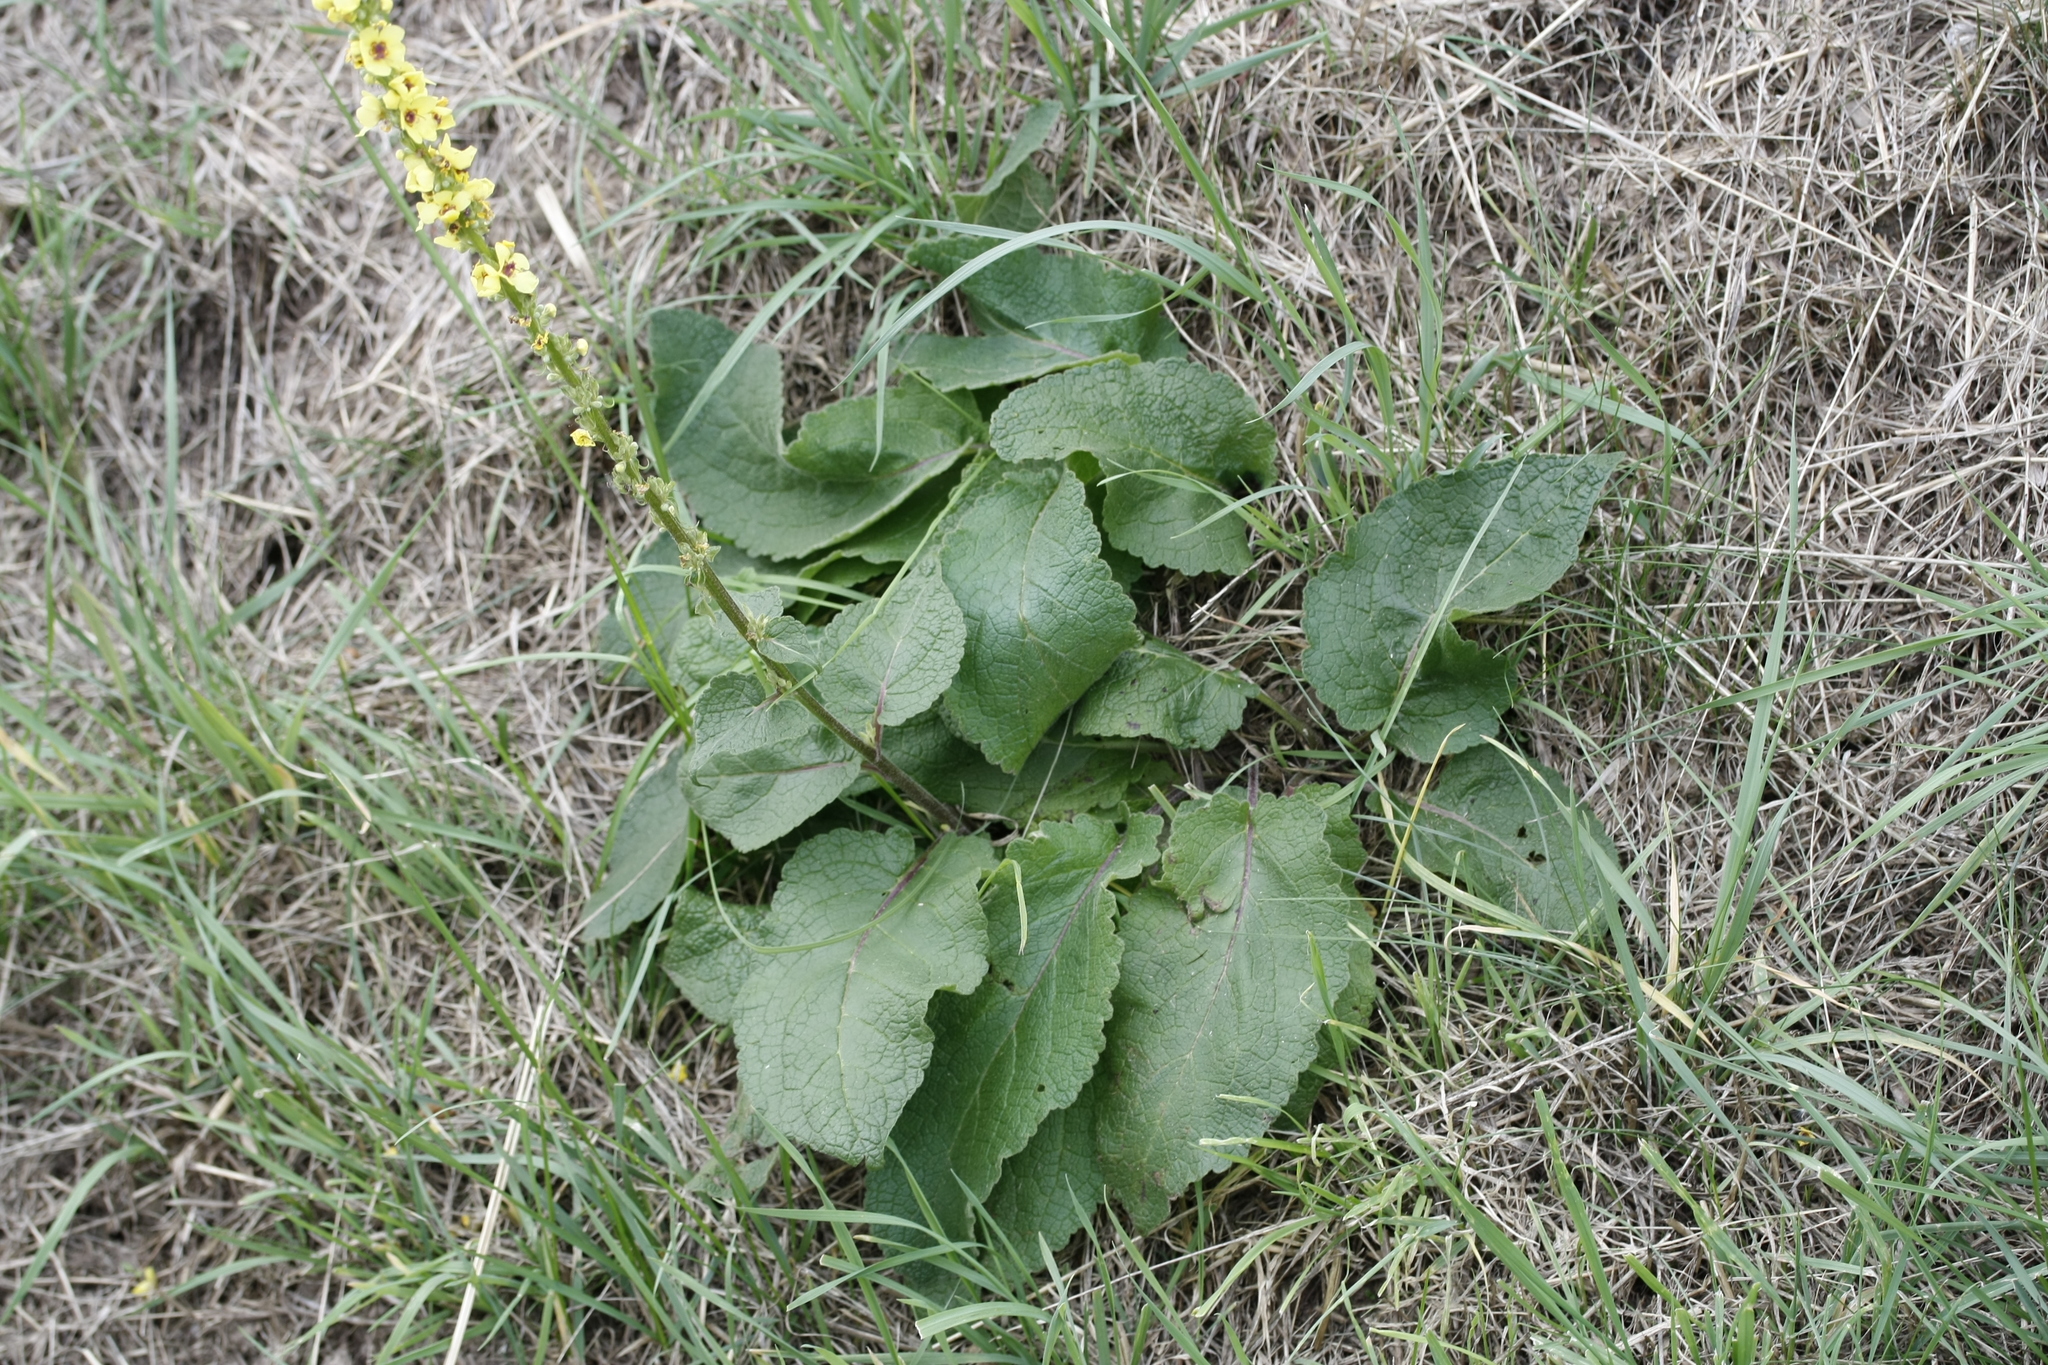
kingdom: Plantae
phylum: Tracheophyta
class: Magnoliopsida
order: Lamiales
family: Scrophulariaceae
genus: Verbascum
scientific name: Verbascum nigrum
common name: Dark mullein
